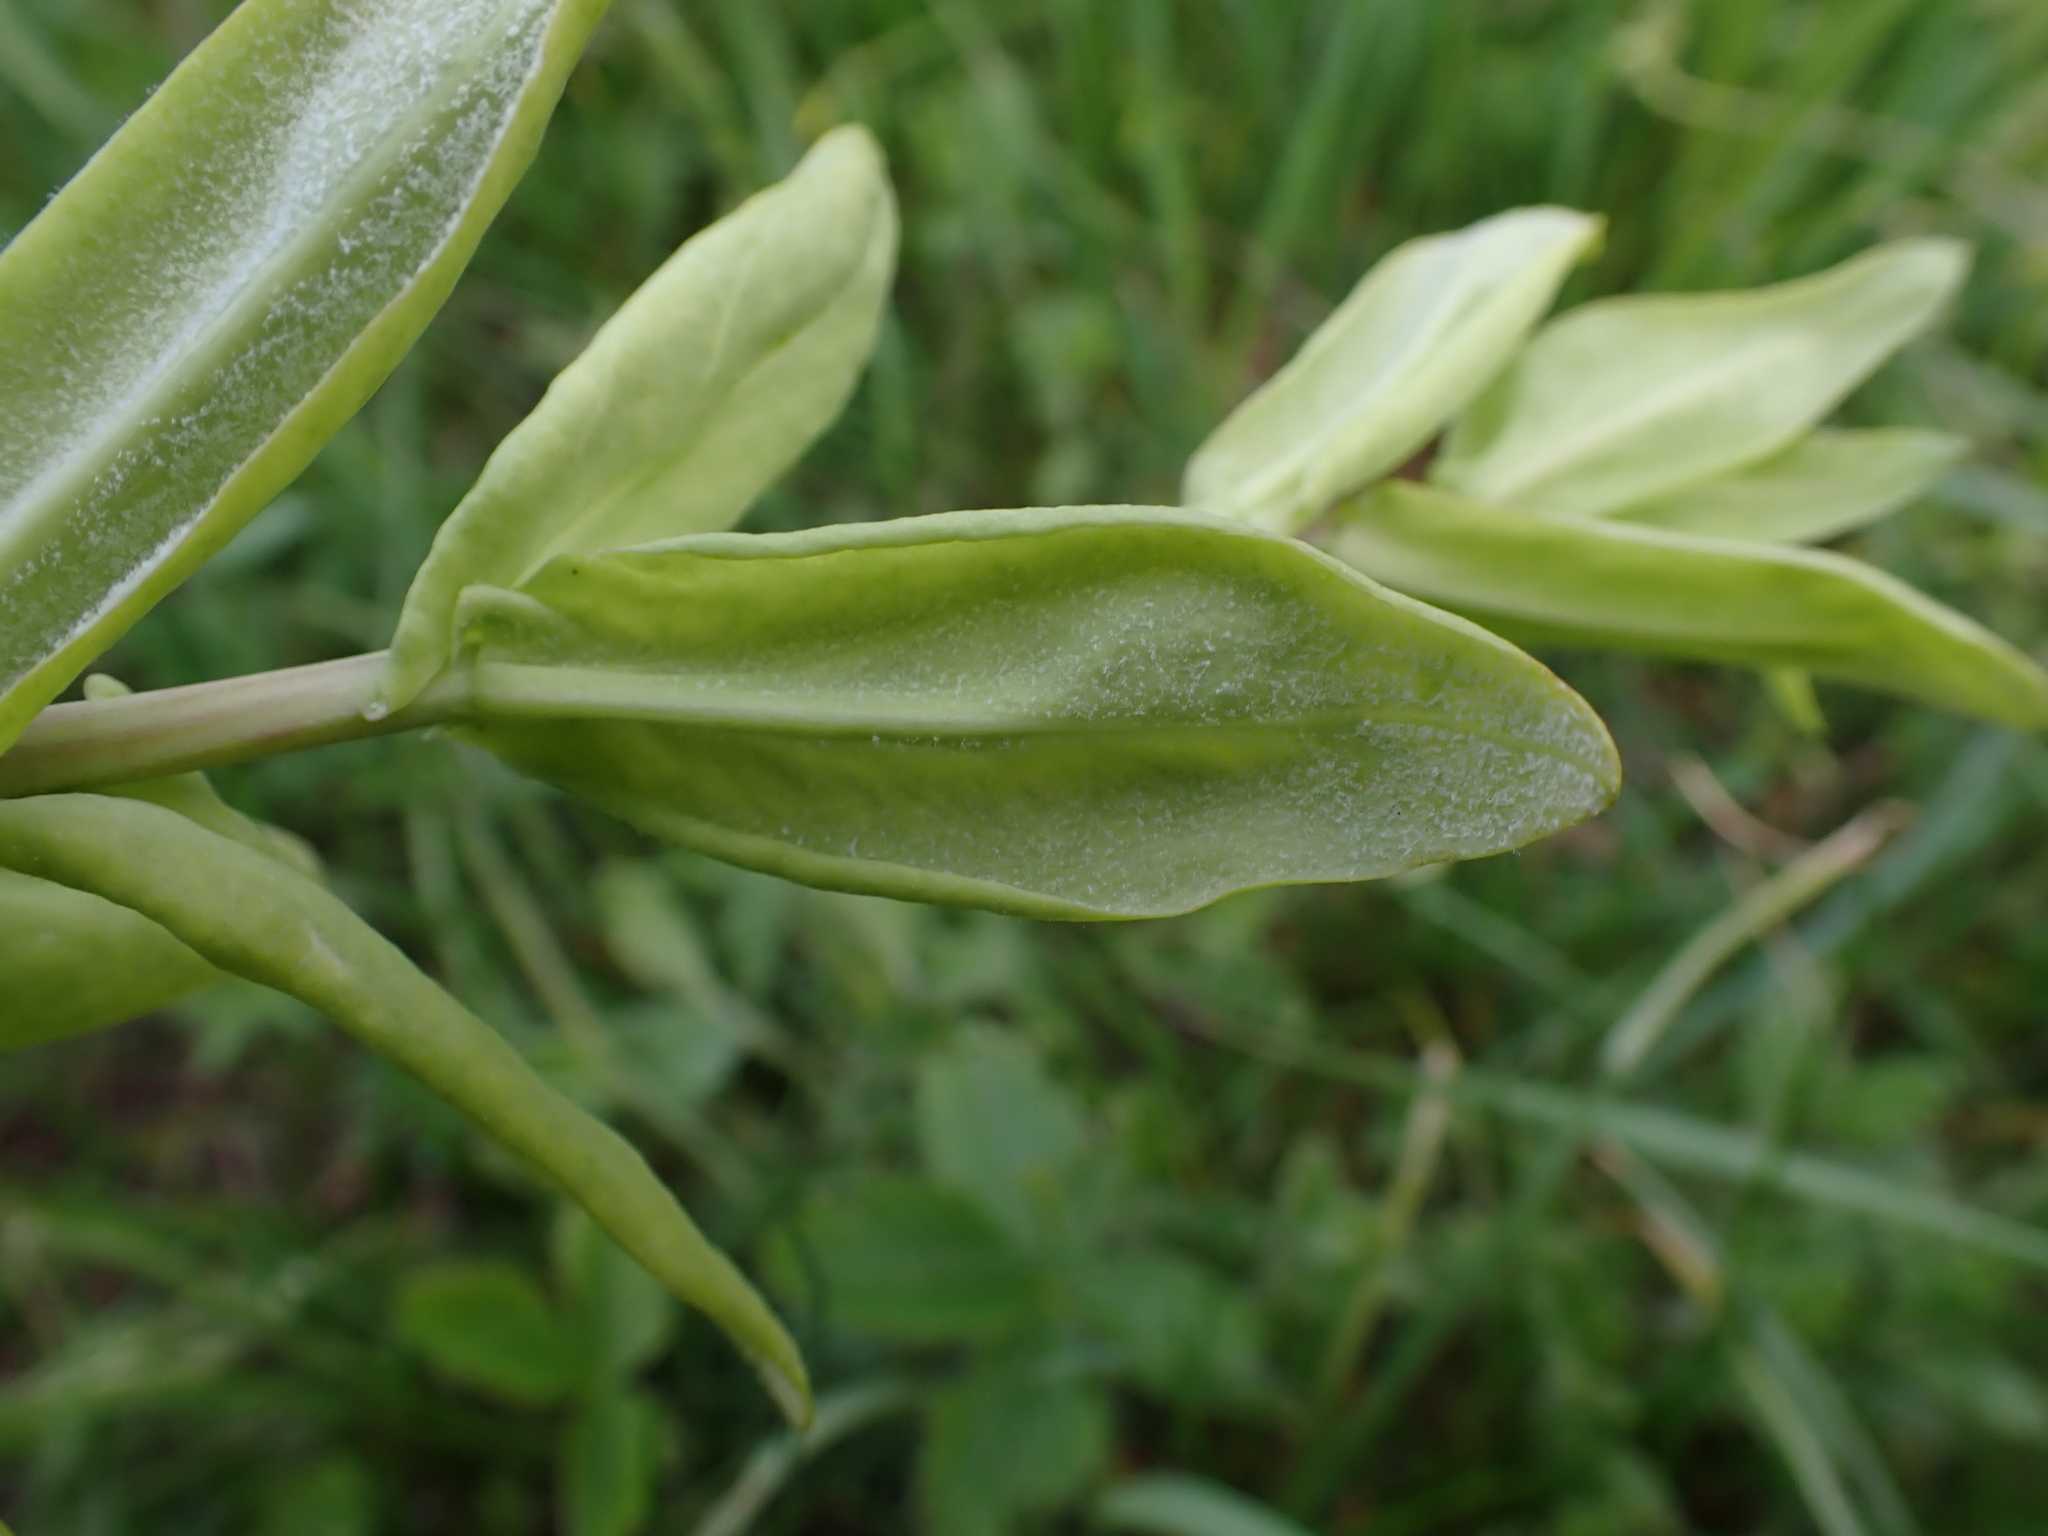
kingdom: Chromista
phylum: Oomycota
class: Peronosporea
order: Peronosporales
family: Peronosporaceae
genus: Peronospora
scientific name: Peronospora arabidis-glabrae
